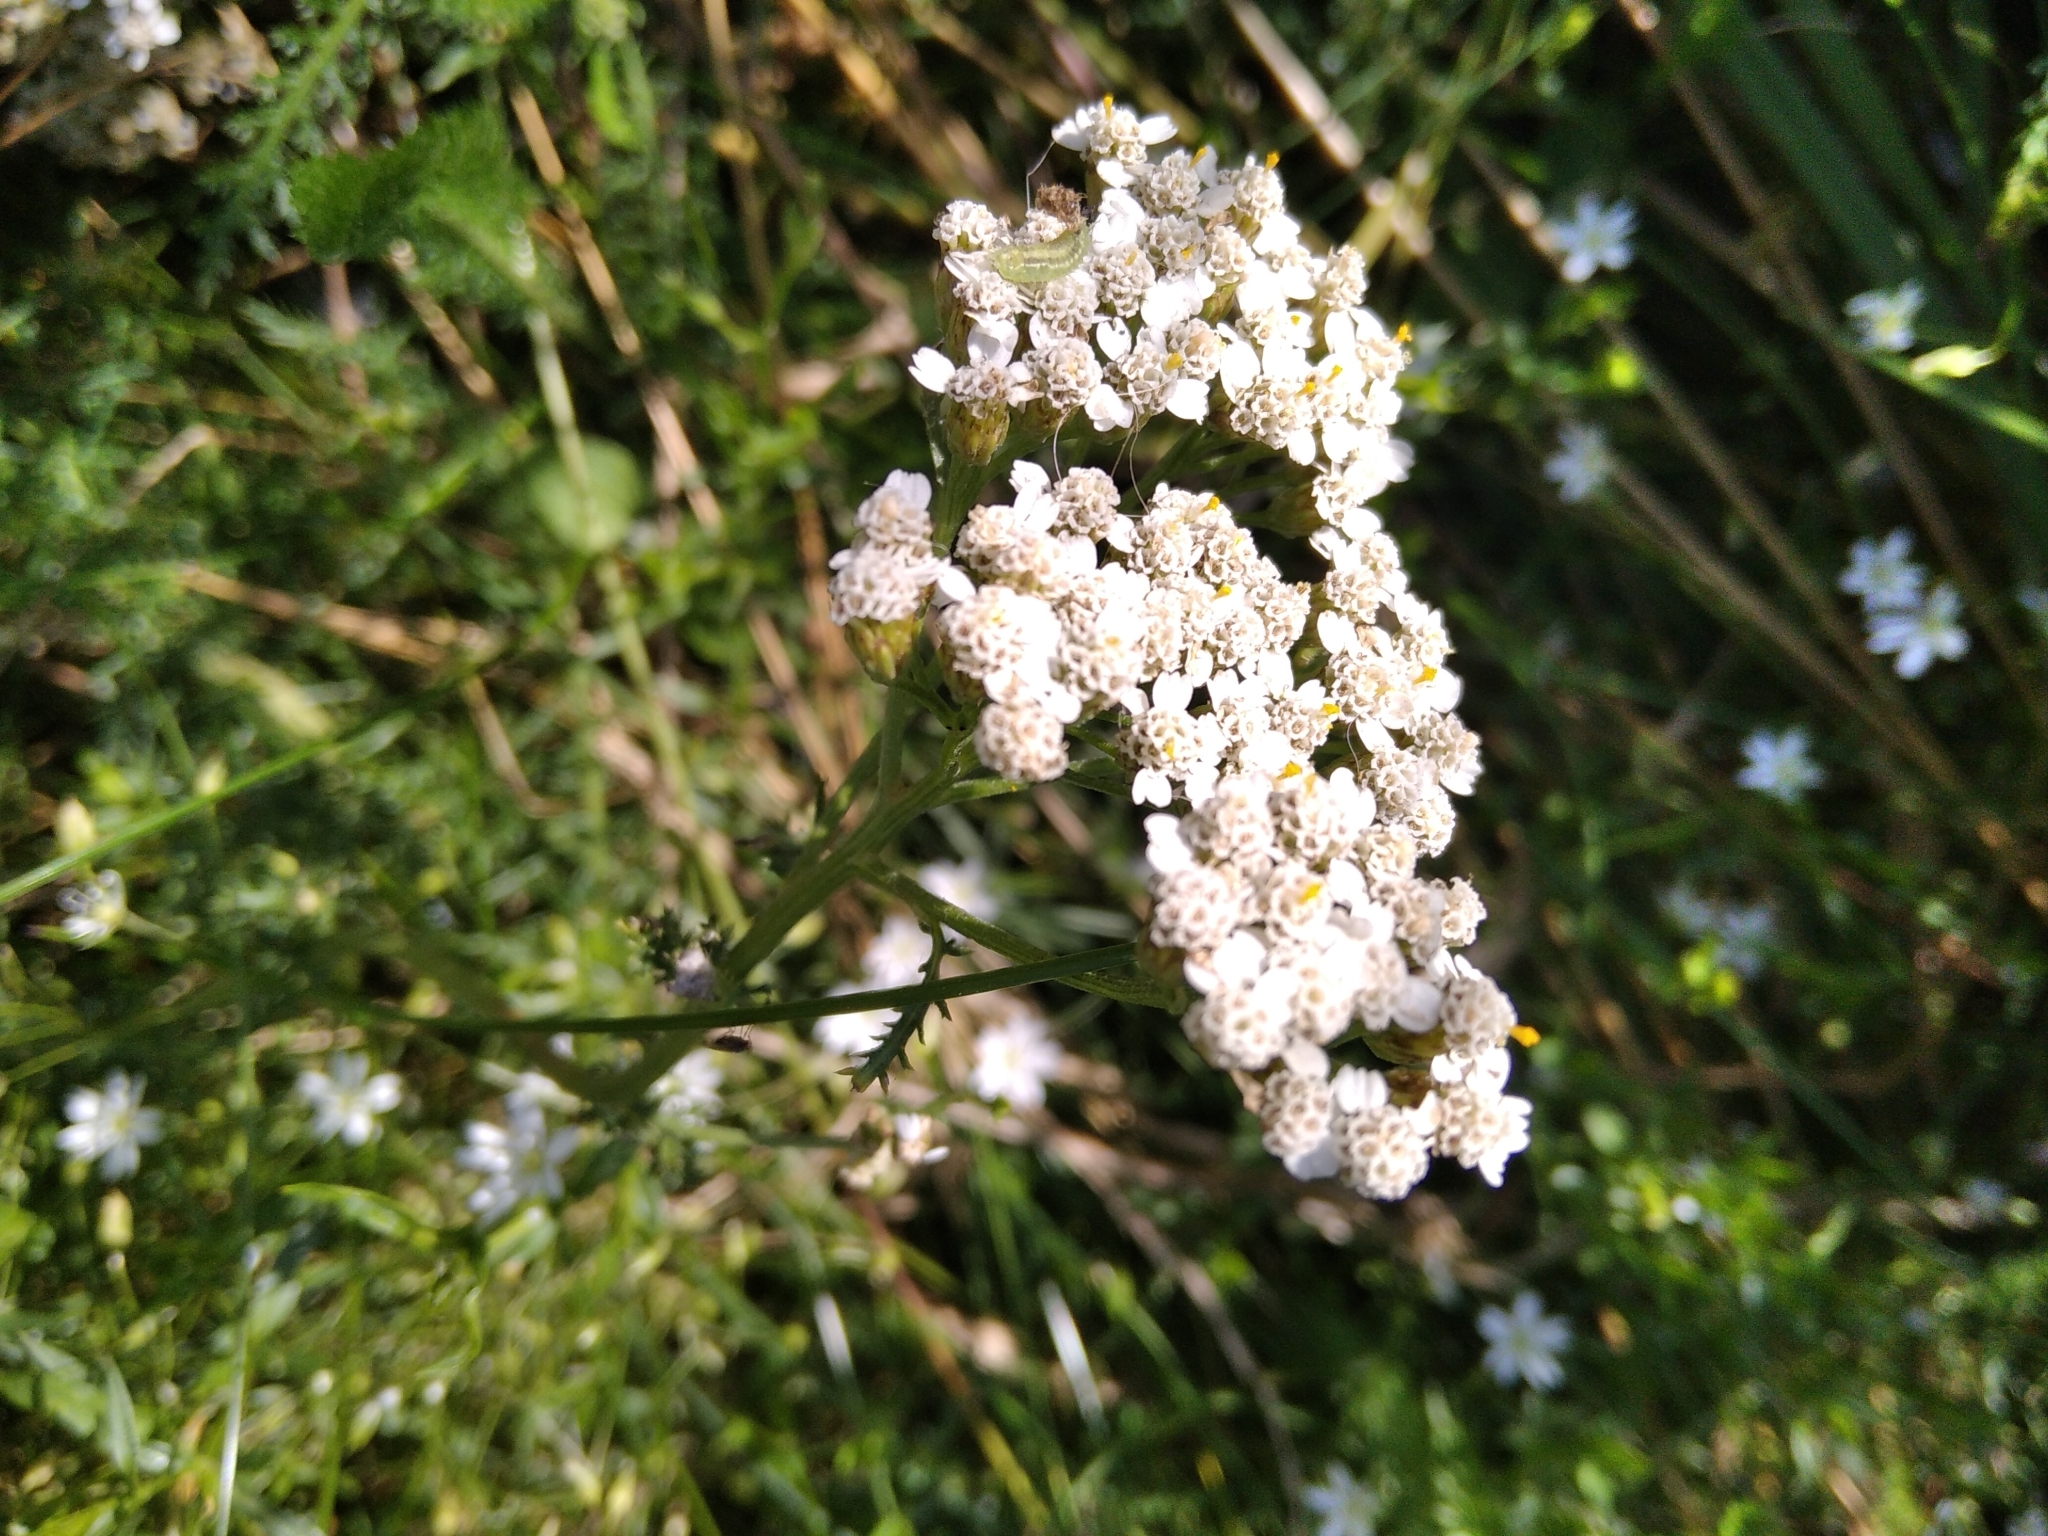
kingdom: Plantae
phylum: Tracheophyta
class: Magnoliopsida
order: Asterales
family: Asteraceae
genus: Achillea
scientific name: Achillea millefolium
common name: Yarrow
